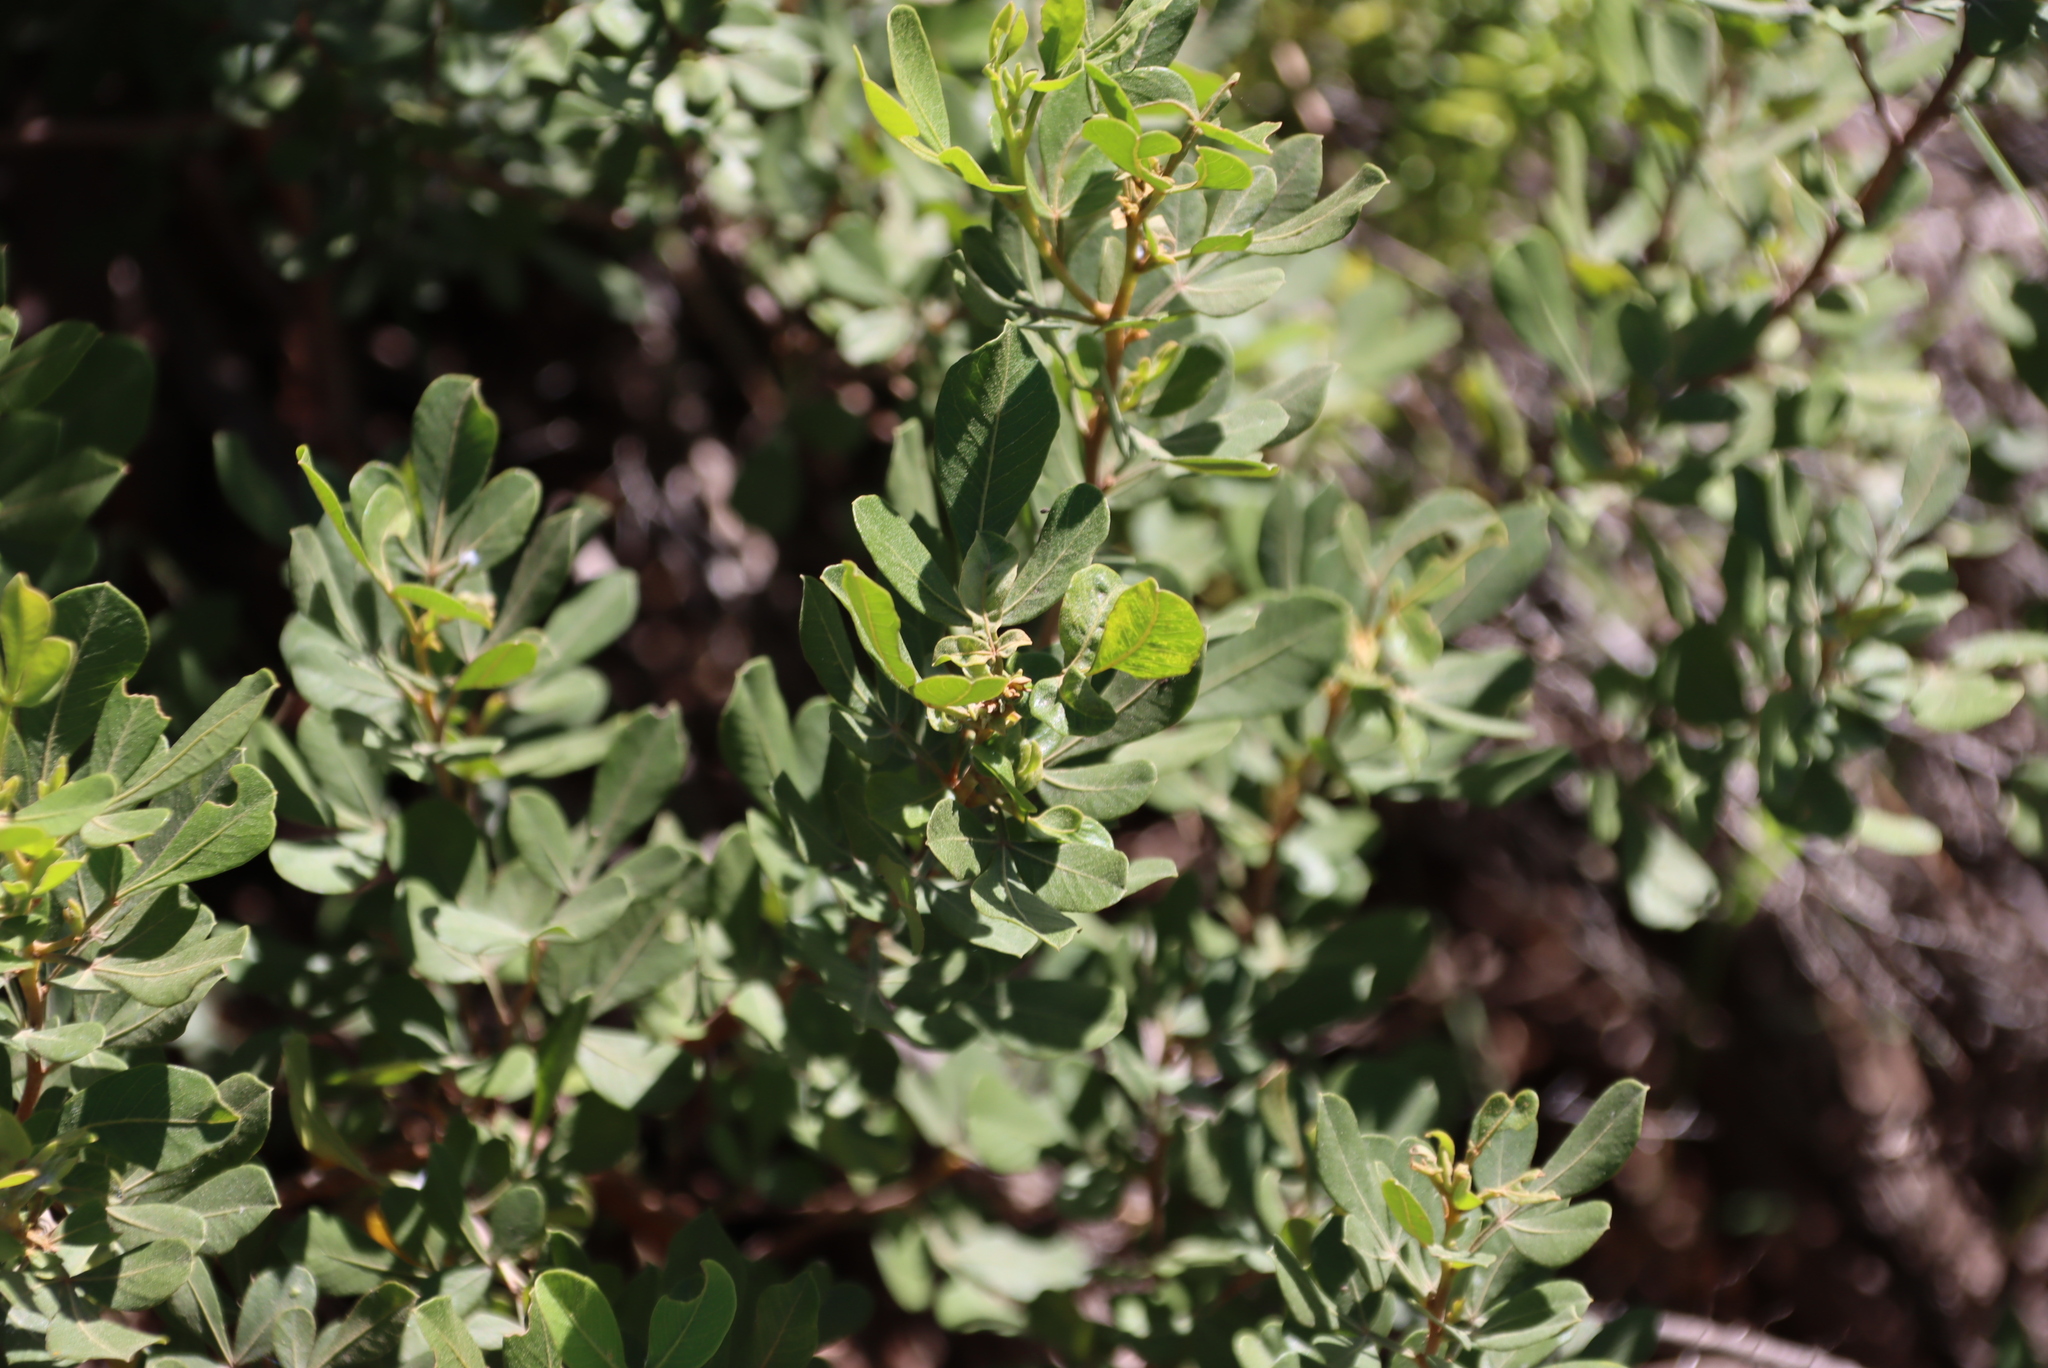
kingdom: Plantae
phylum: Tracheophyta
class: Magnoliopsida
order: Sapindales
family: Anacardiaceae
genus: Searsia
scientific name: Searsia pallens
